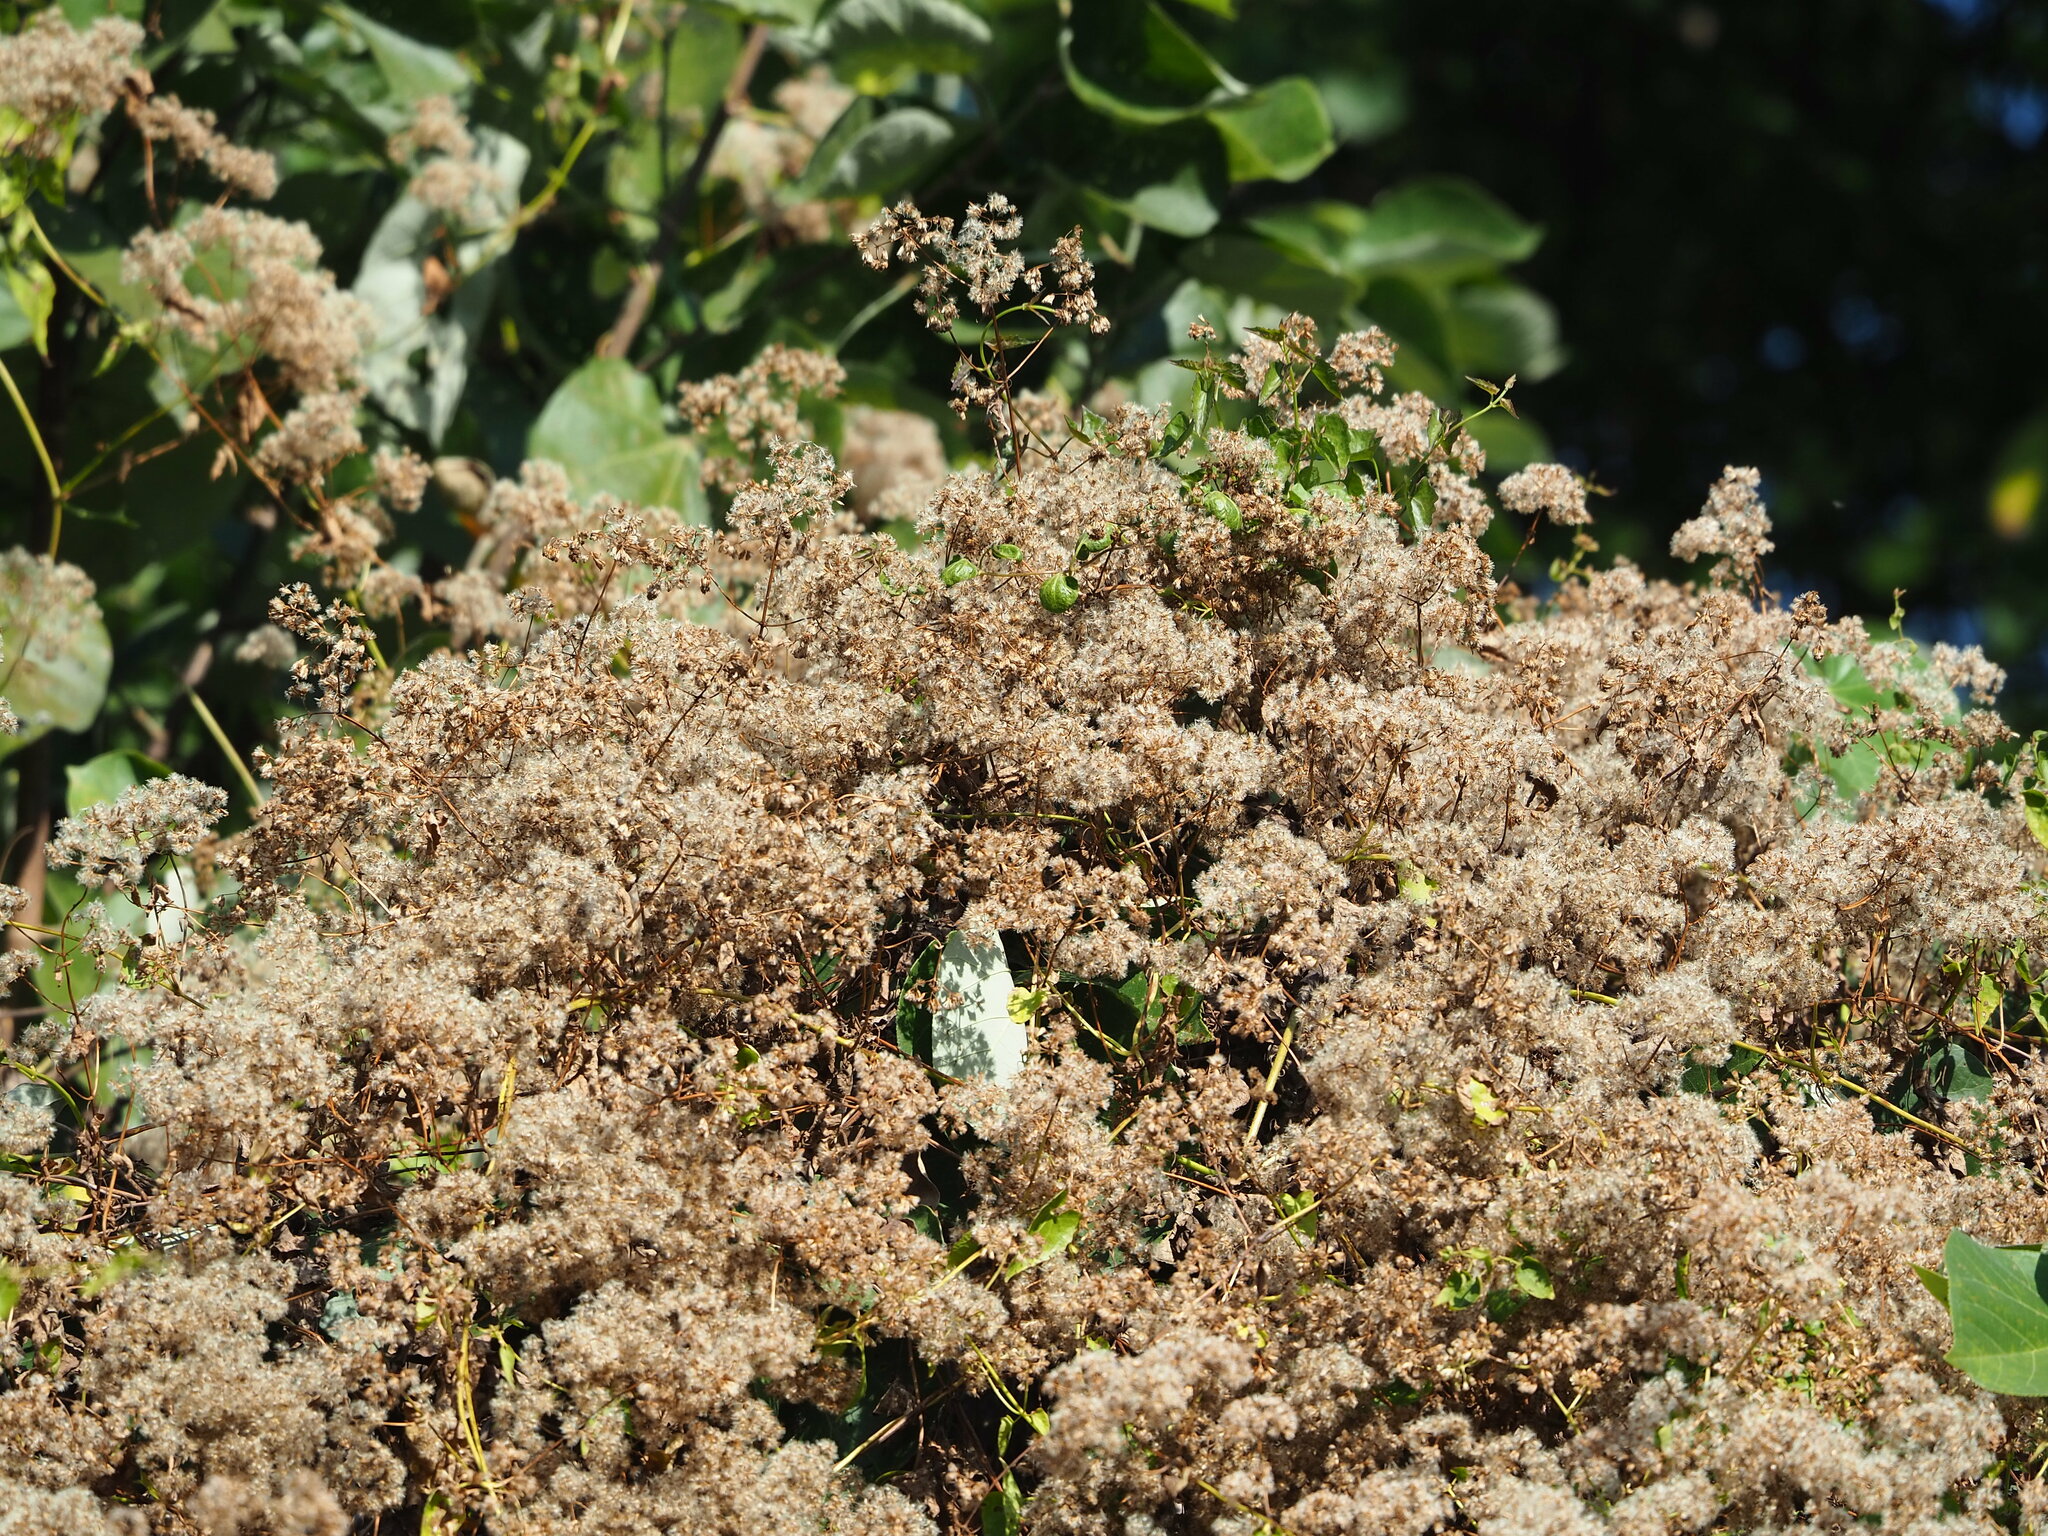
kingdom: Plantae
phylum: Tracheophyta
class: Magnoliopsida
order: Asterales
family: Asteraceae
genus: Mikania
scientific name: Mikania micrantha
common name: Mile-a-minute
